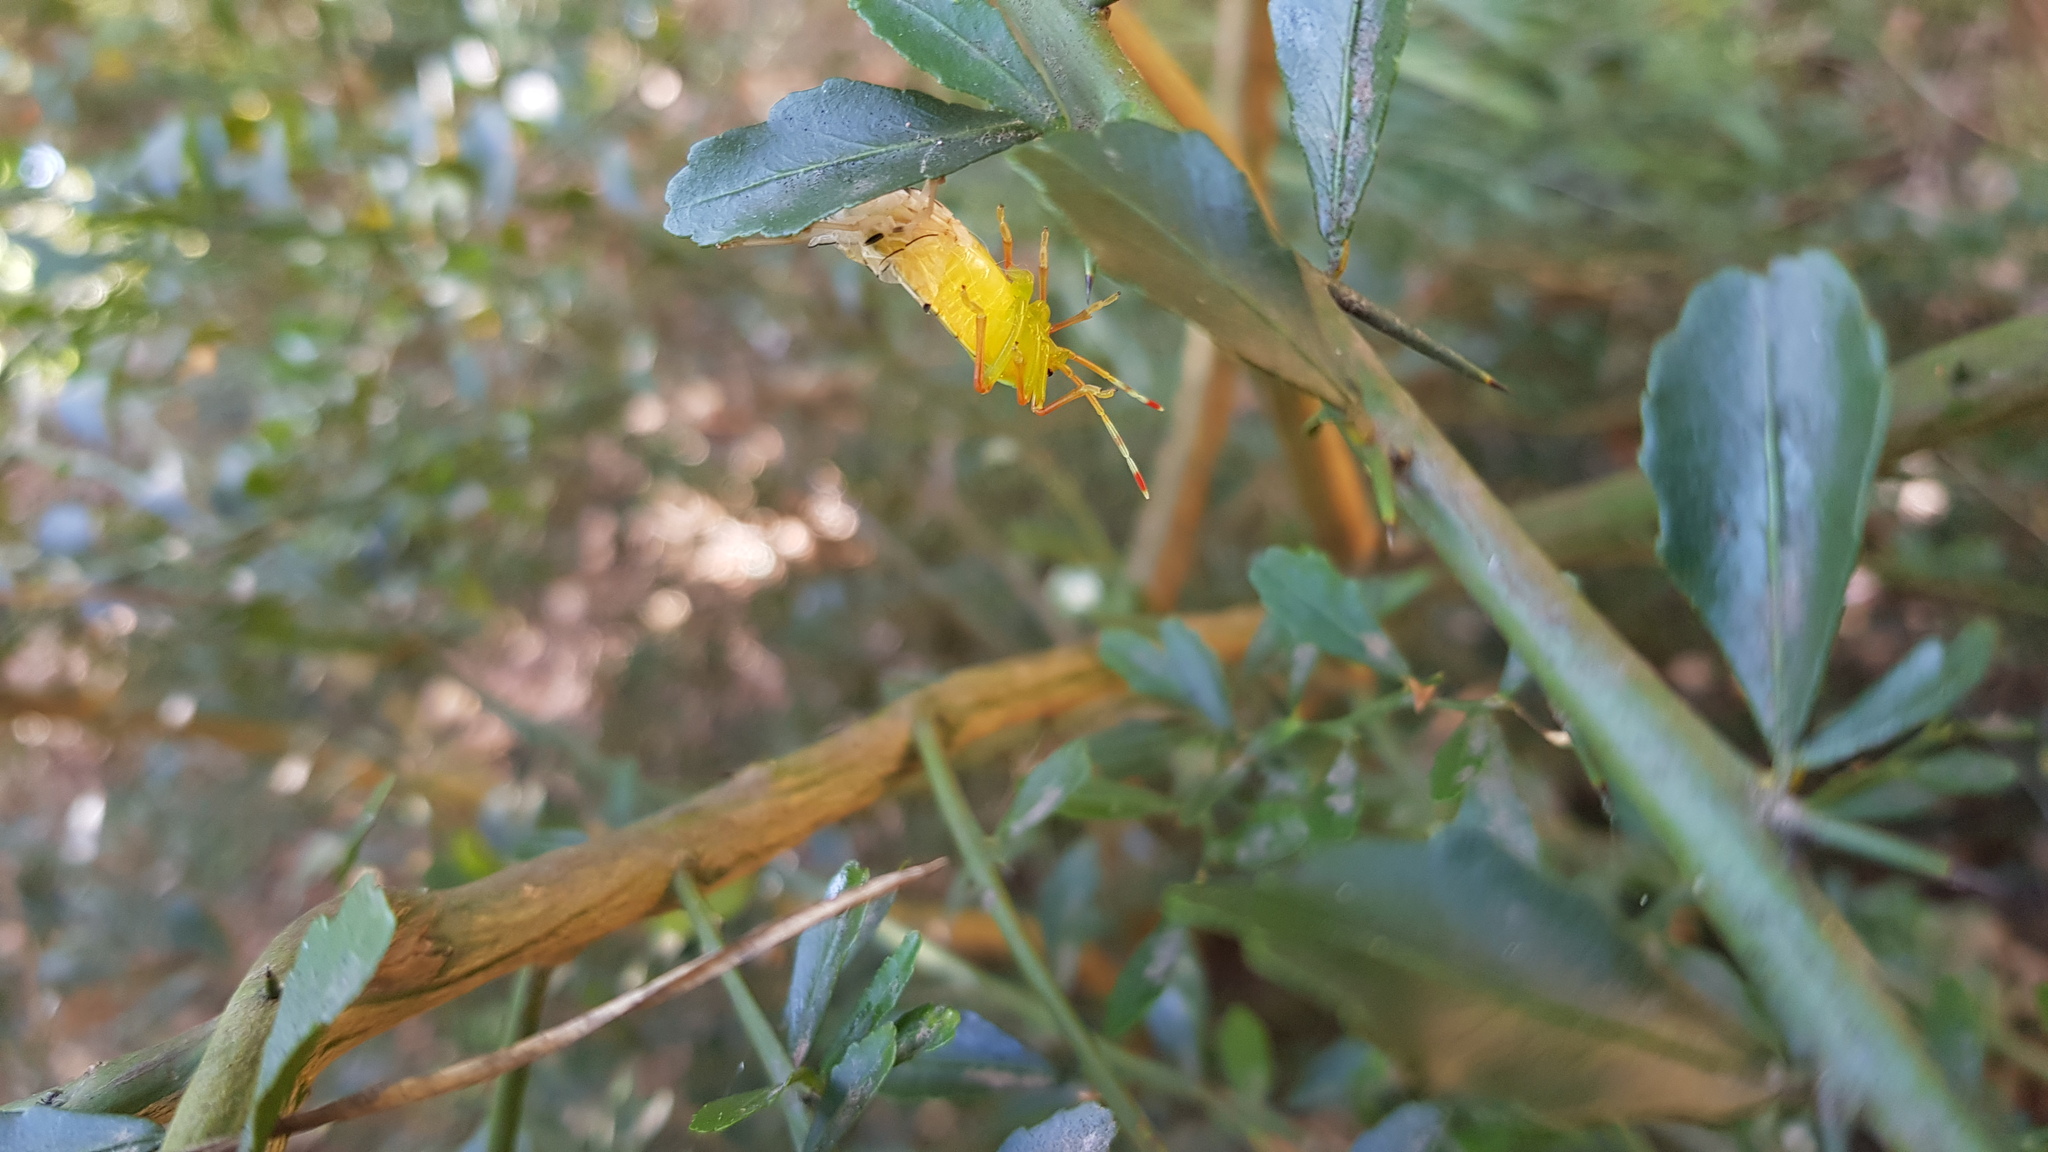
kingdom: Animalia
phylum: Arthropoda
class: Insecta
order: Hemiptera
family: Tessaratomidae
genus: Musgraveia
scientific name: Musgraveia sulciventris
